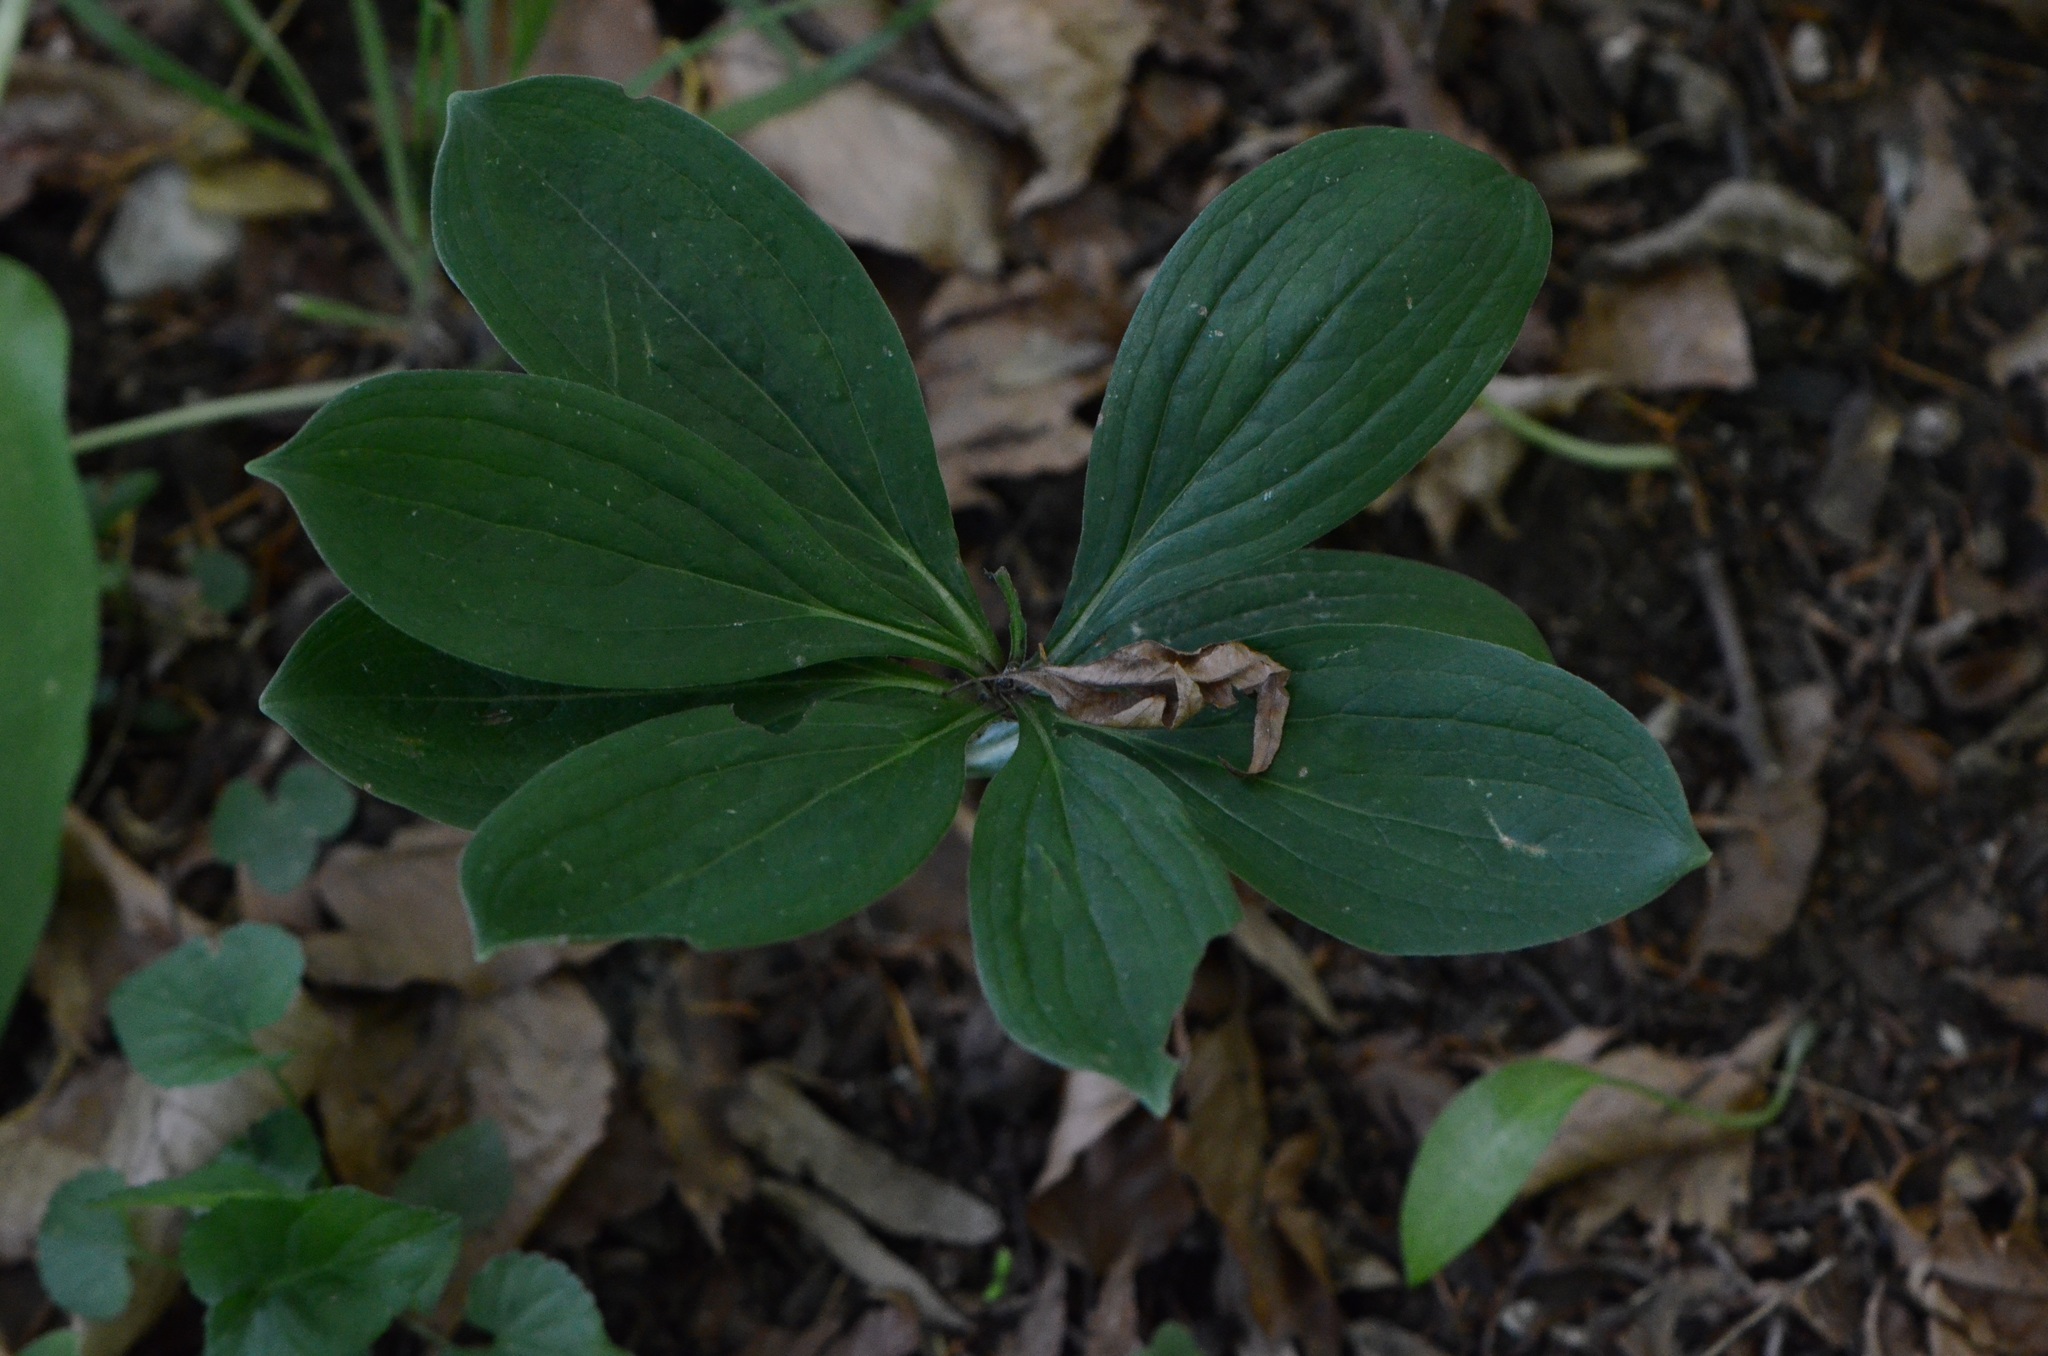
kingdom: Plantae
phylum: Tracheophyta
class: Liliopsida
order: Liliales
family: Liliaceae
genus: Lilium
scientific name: Lilium martagon
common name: Martagon lily
